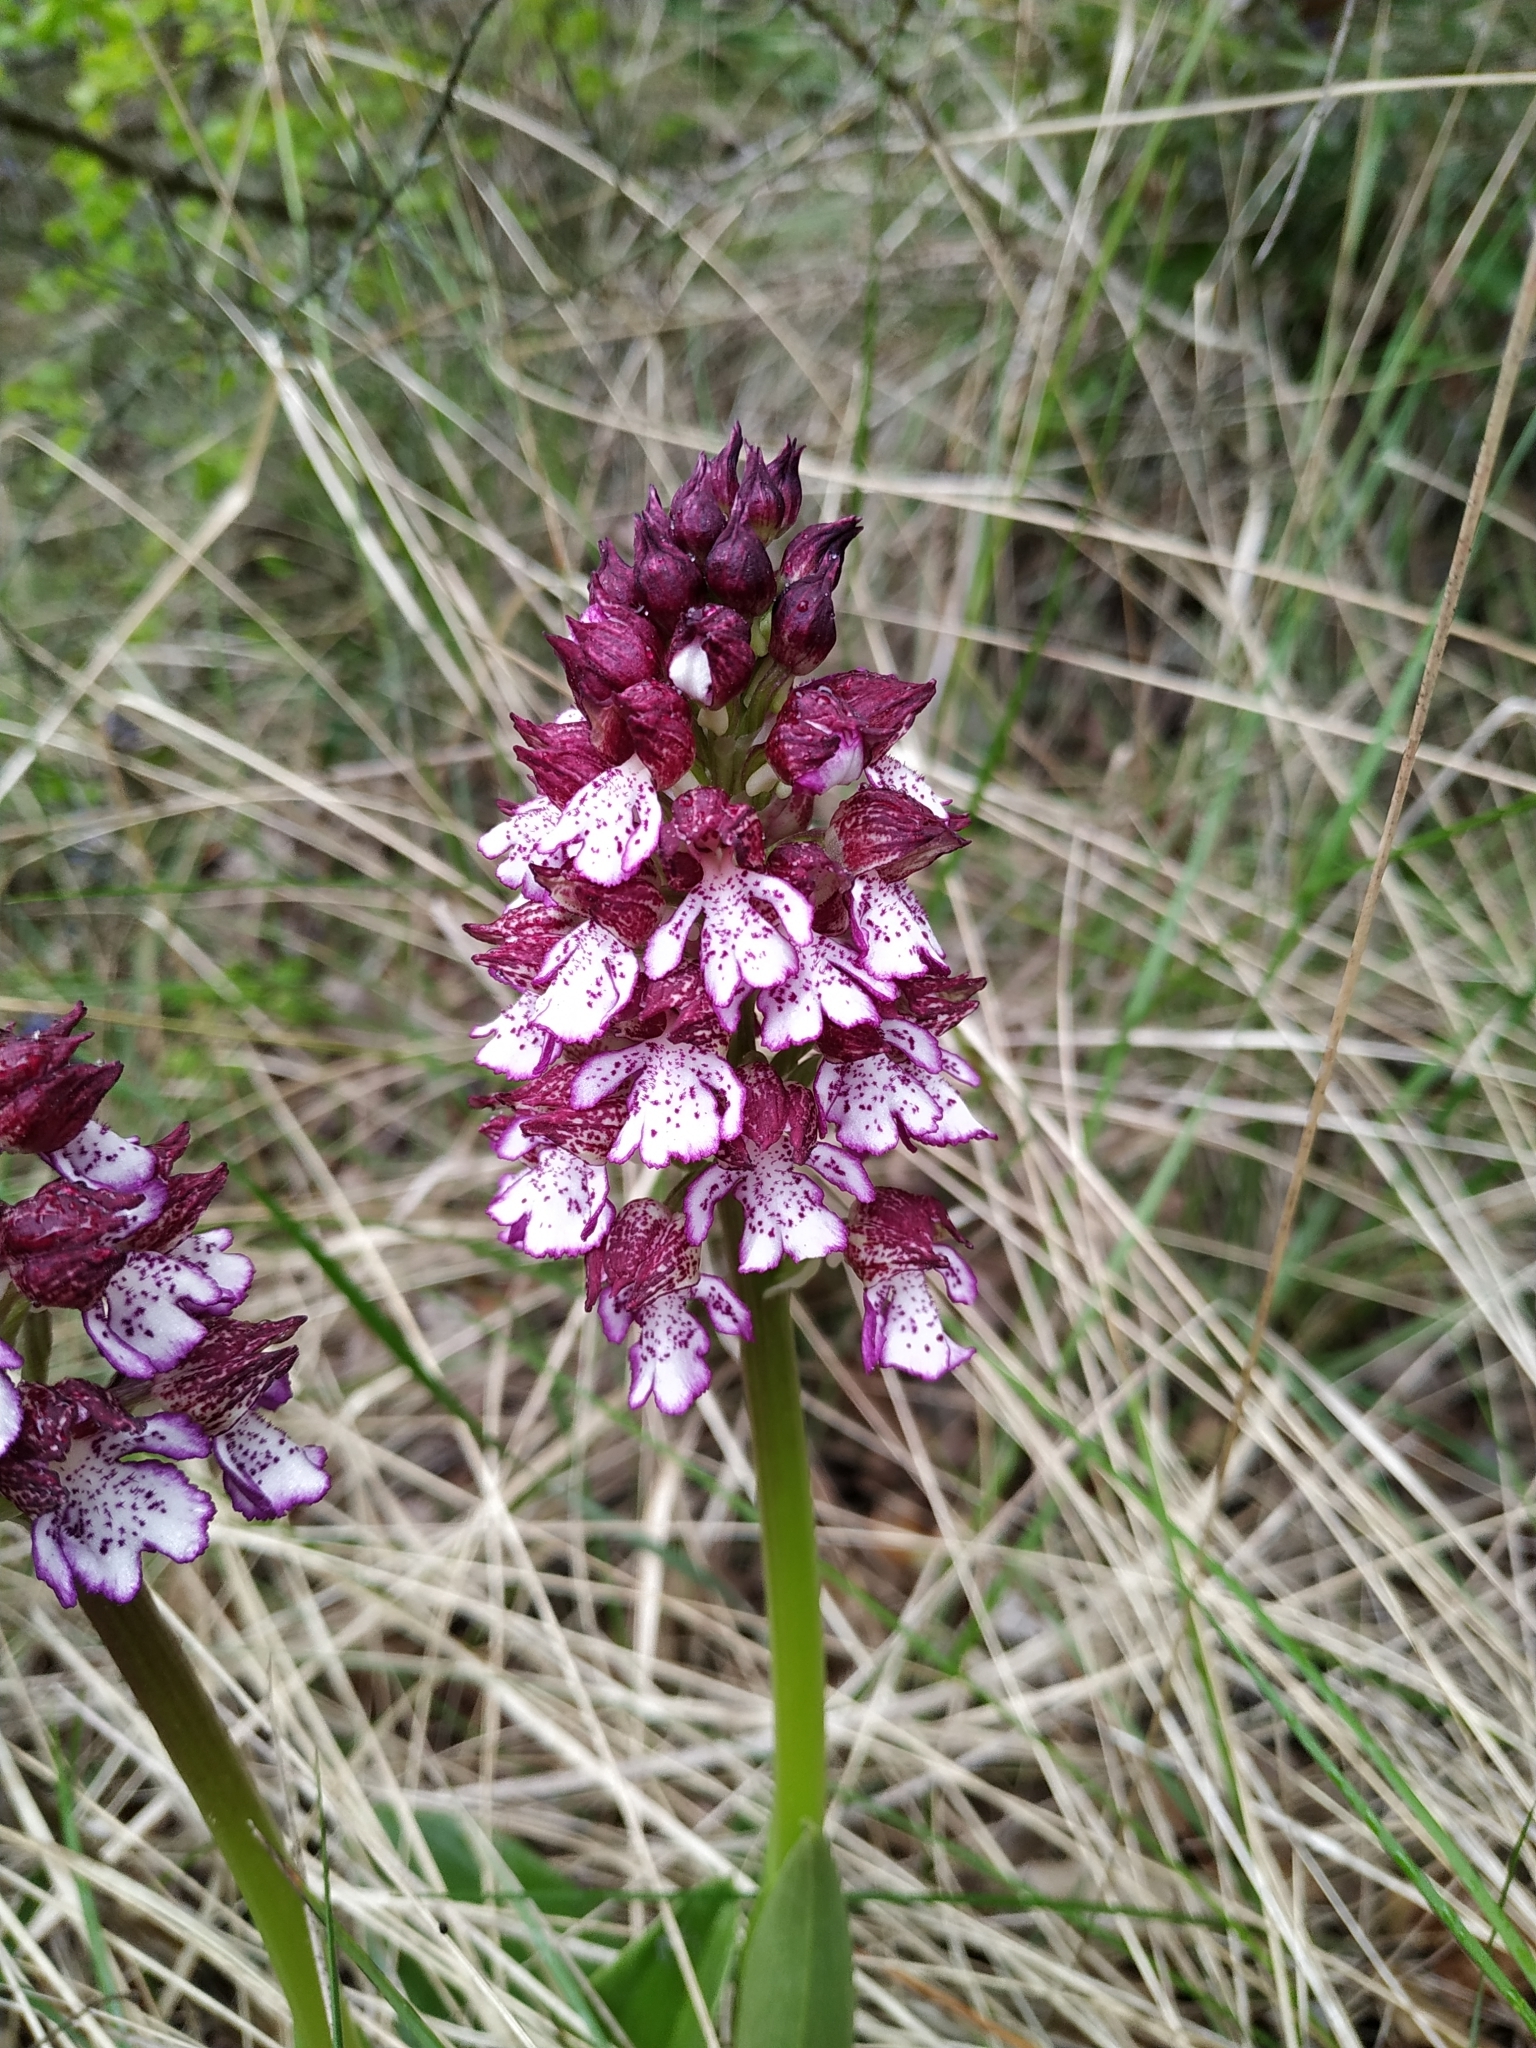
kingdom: Plantae
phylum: Tracheophyta
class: Liliopsida
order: Asparagales
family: Orchidaceae
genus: Orchis
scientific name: Orchis purpurea
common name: Lady orchid
